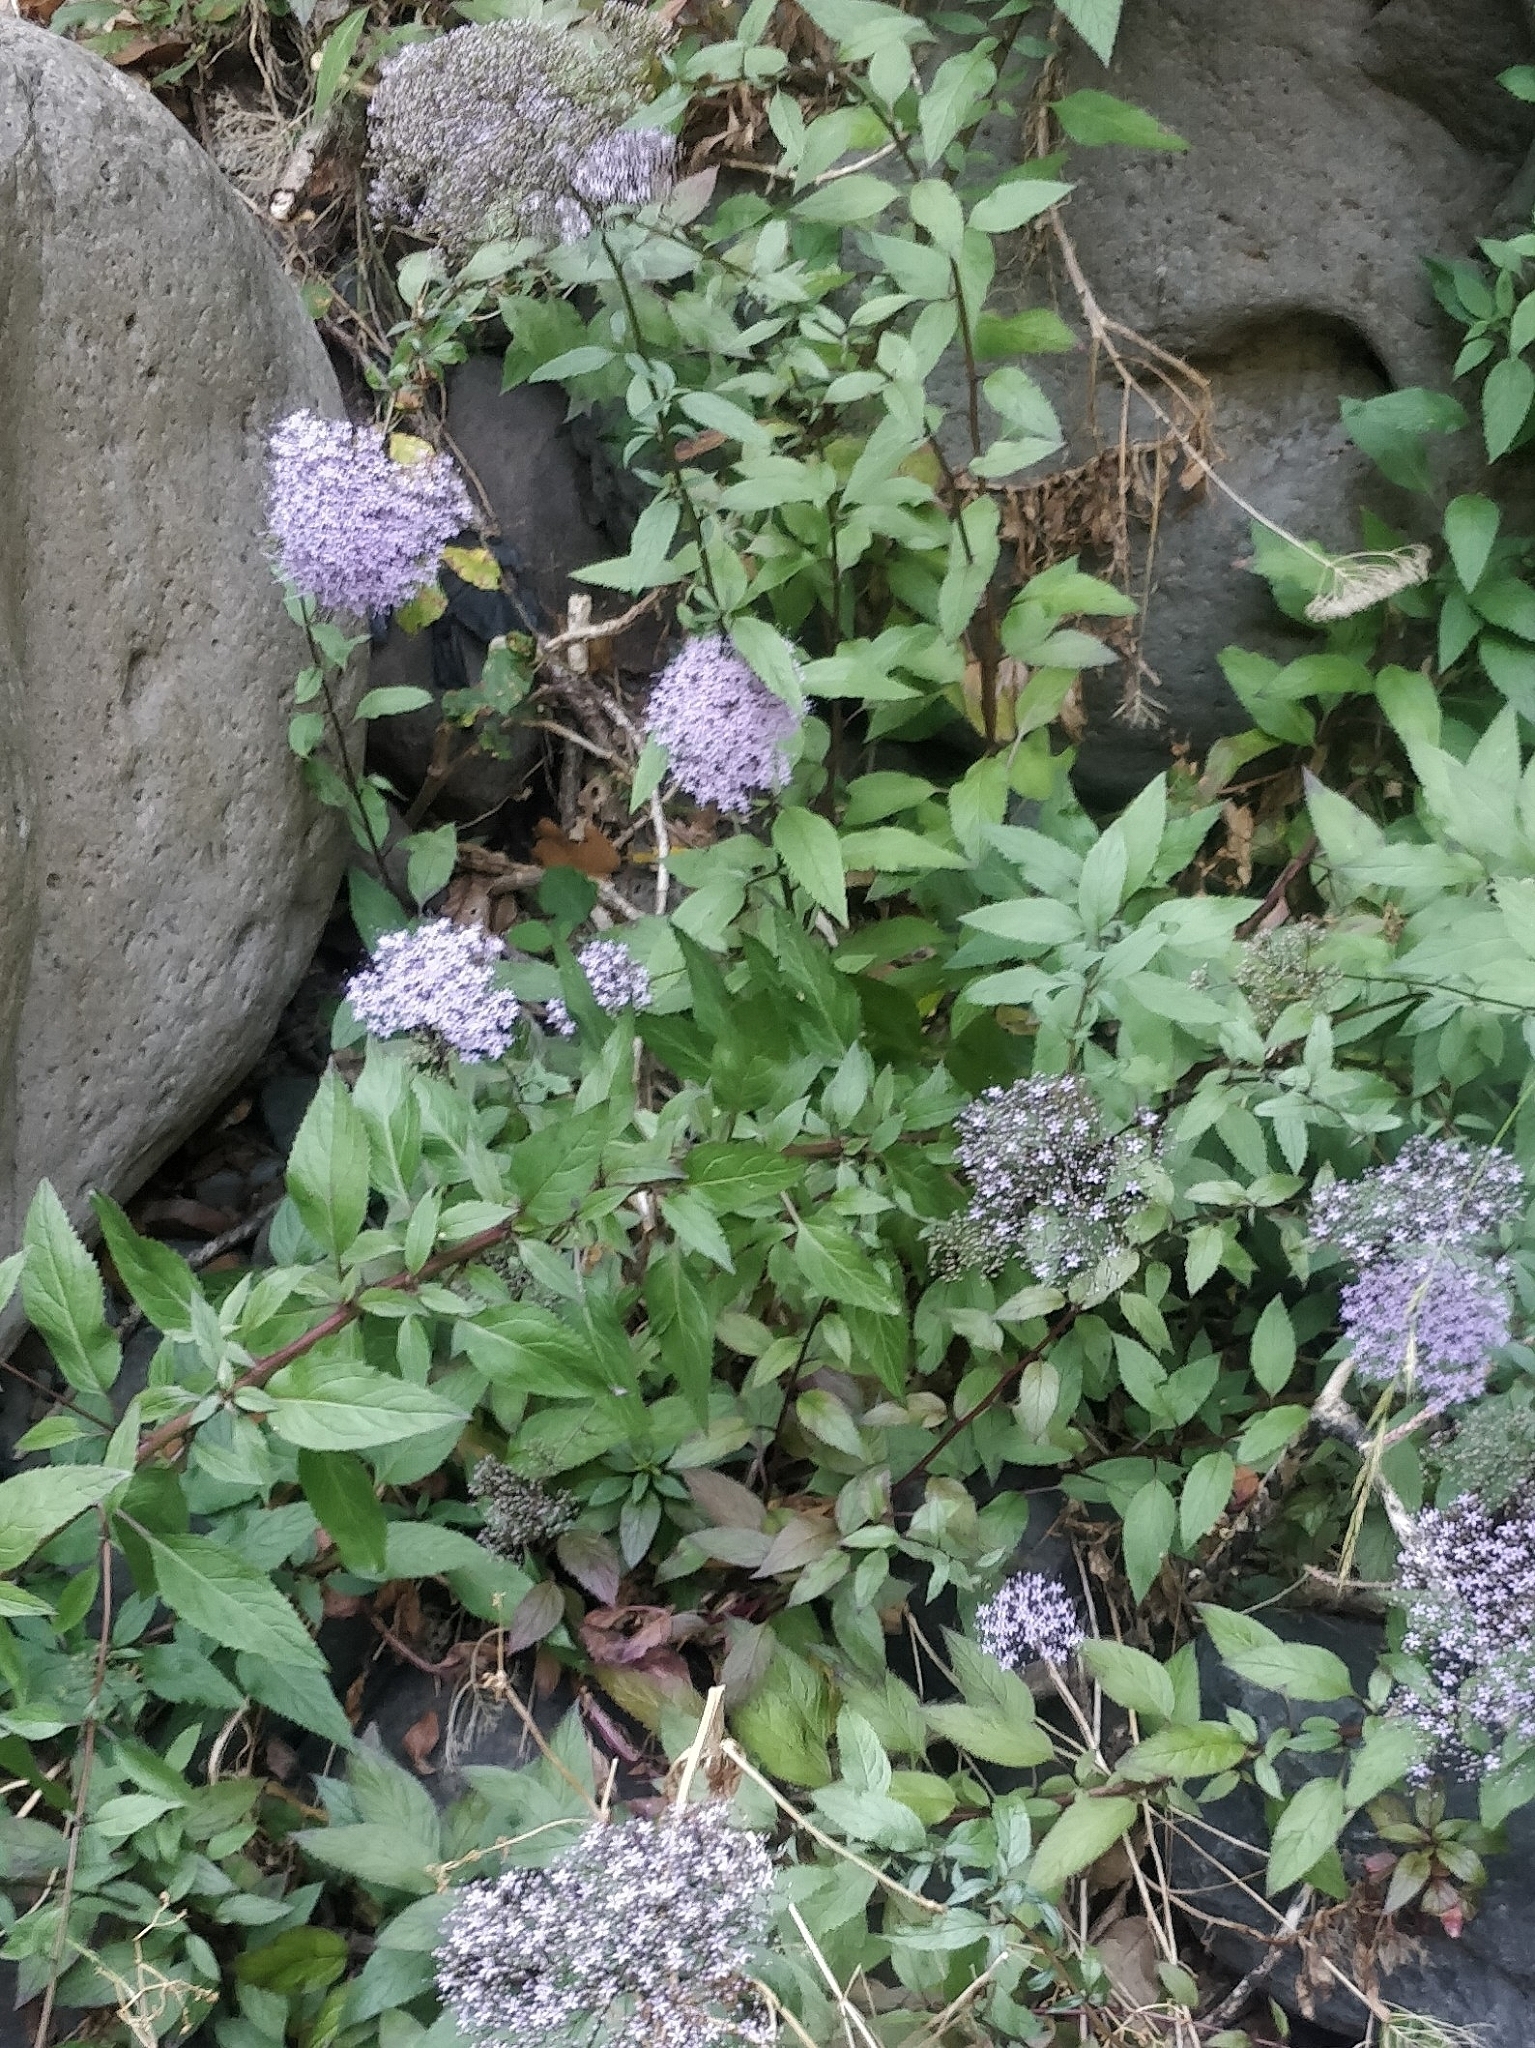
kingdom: Plantae
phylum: Tracheophyta
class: Magnoliopsida
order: Asterales
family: Campanulaceae
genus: Trachelium
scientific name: Trachelium caeruleum
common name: Throatwort
